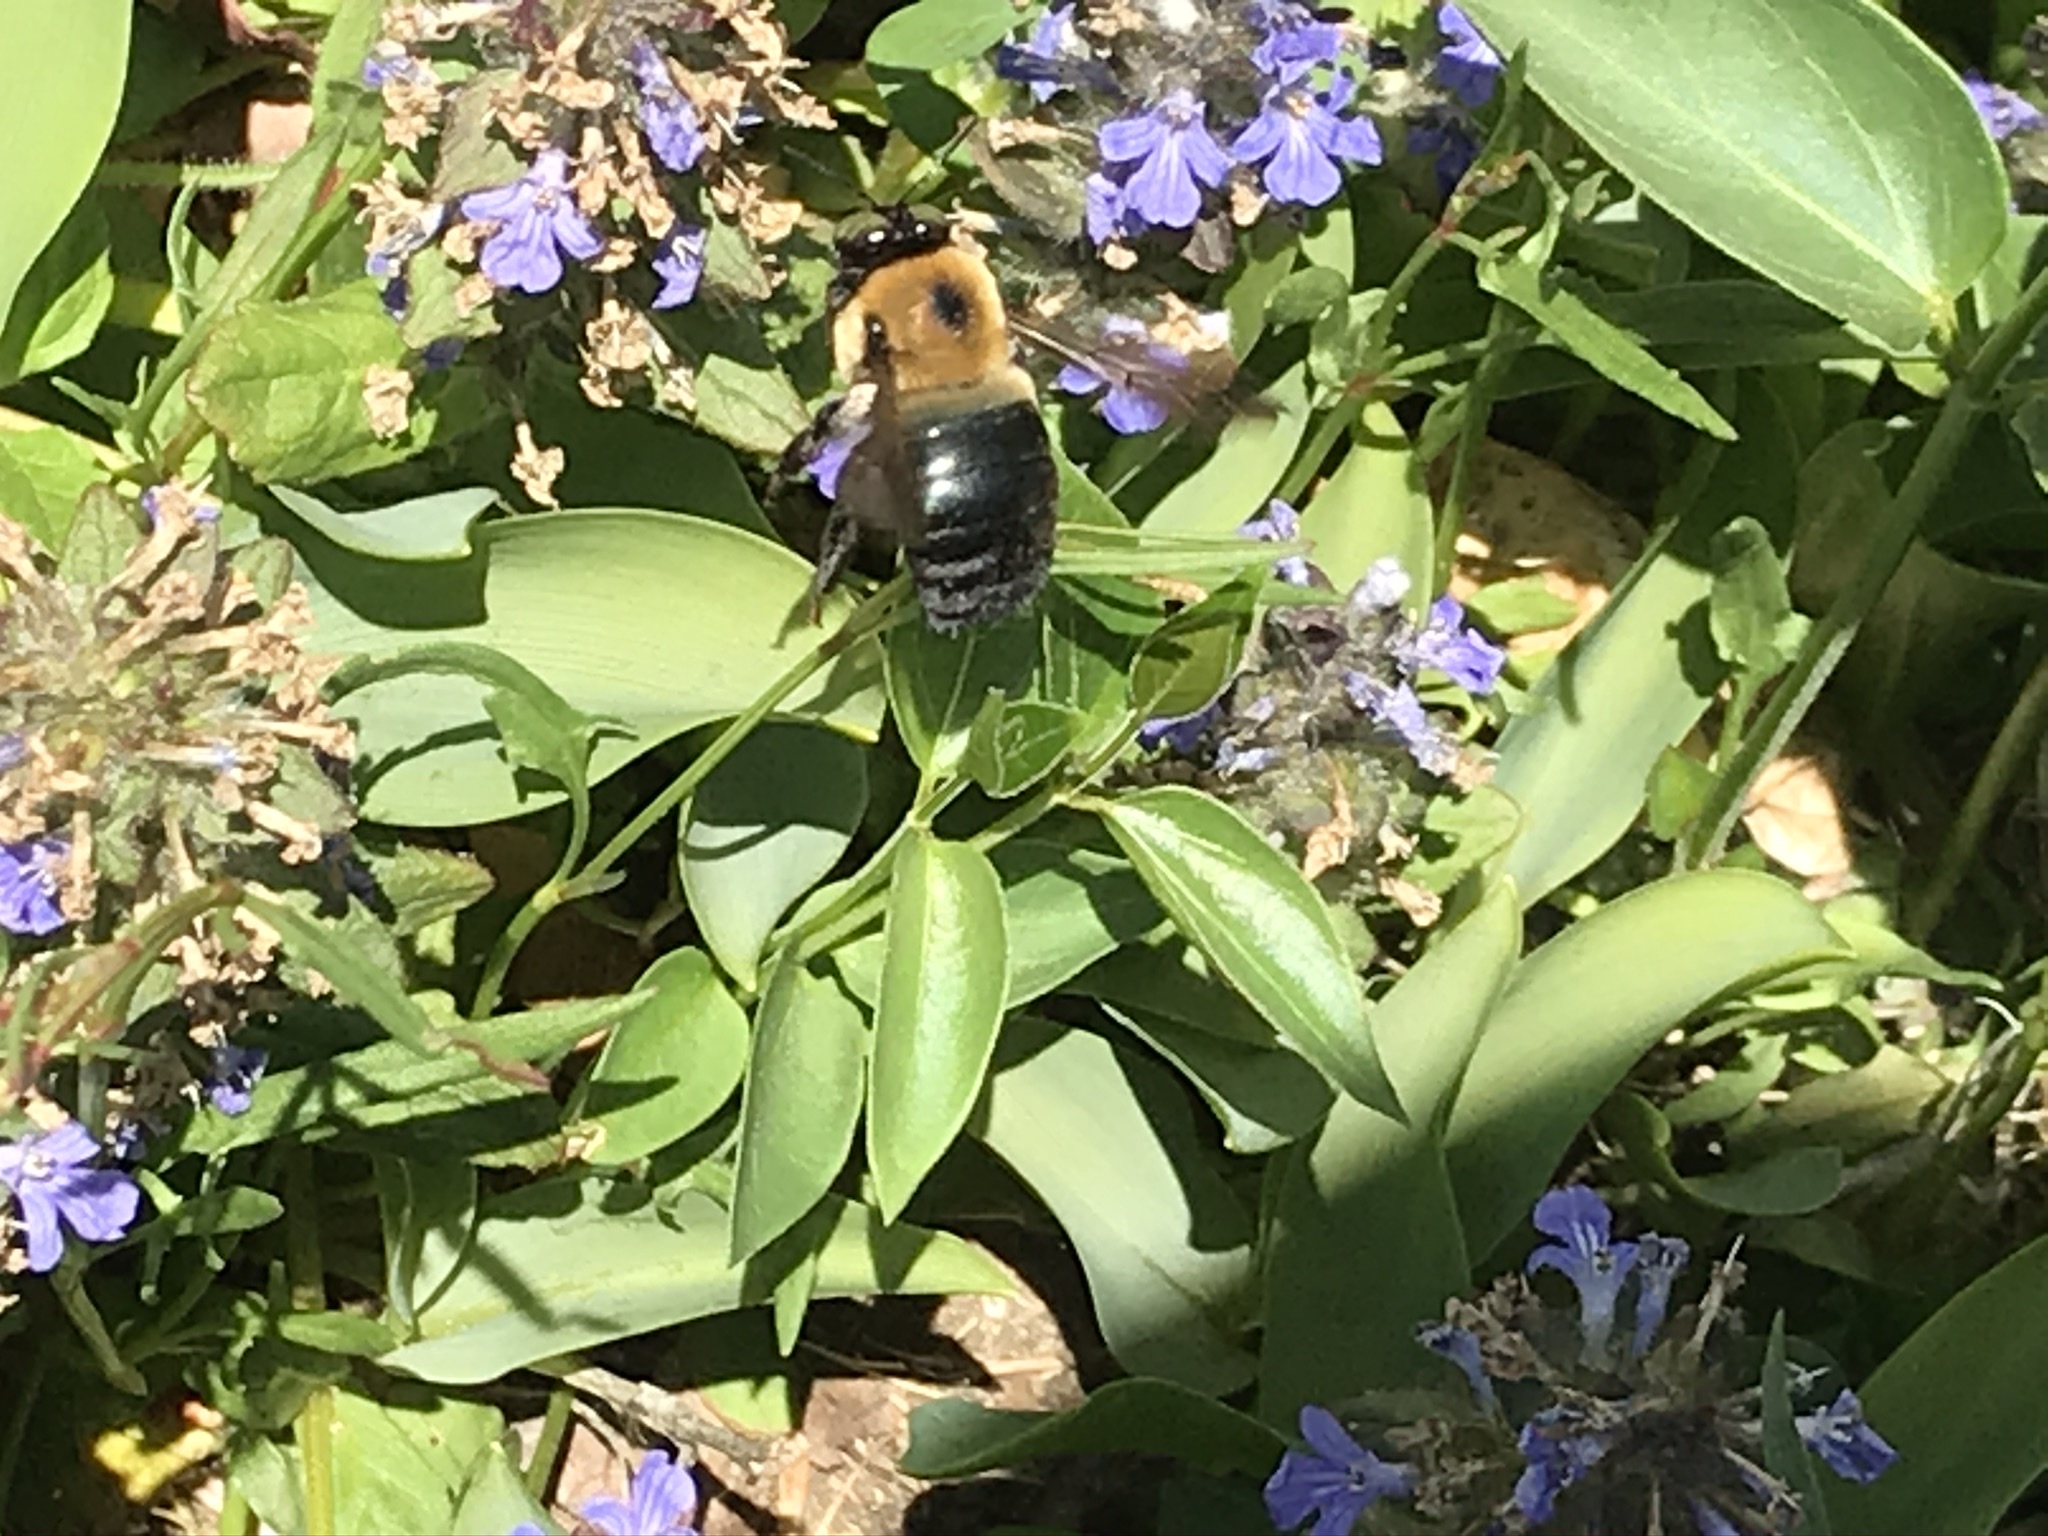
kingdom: Animalia
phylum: Arthropoda
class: Insecta
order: Hymenoptera
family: Apidae
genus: Xylocopa
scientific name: Xylocopa virginica
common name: Carpenter bee
